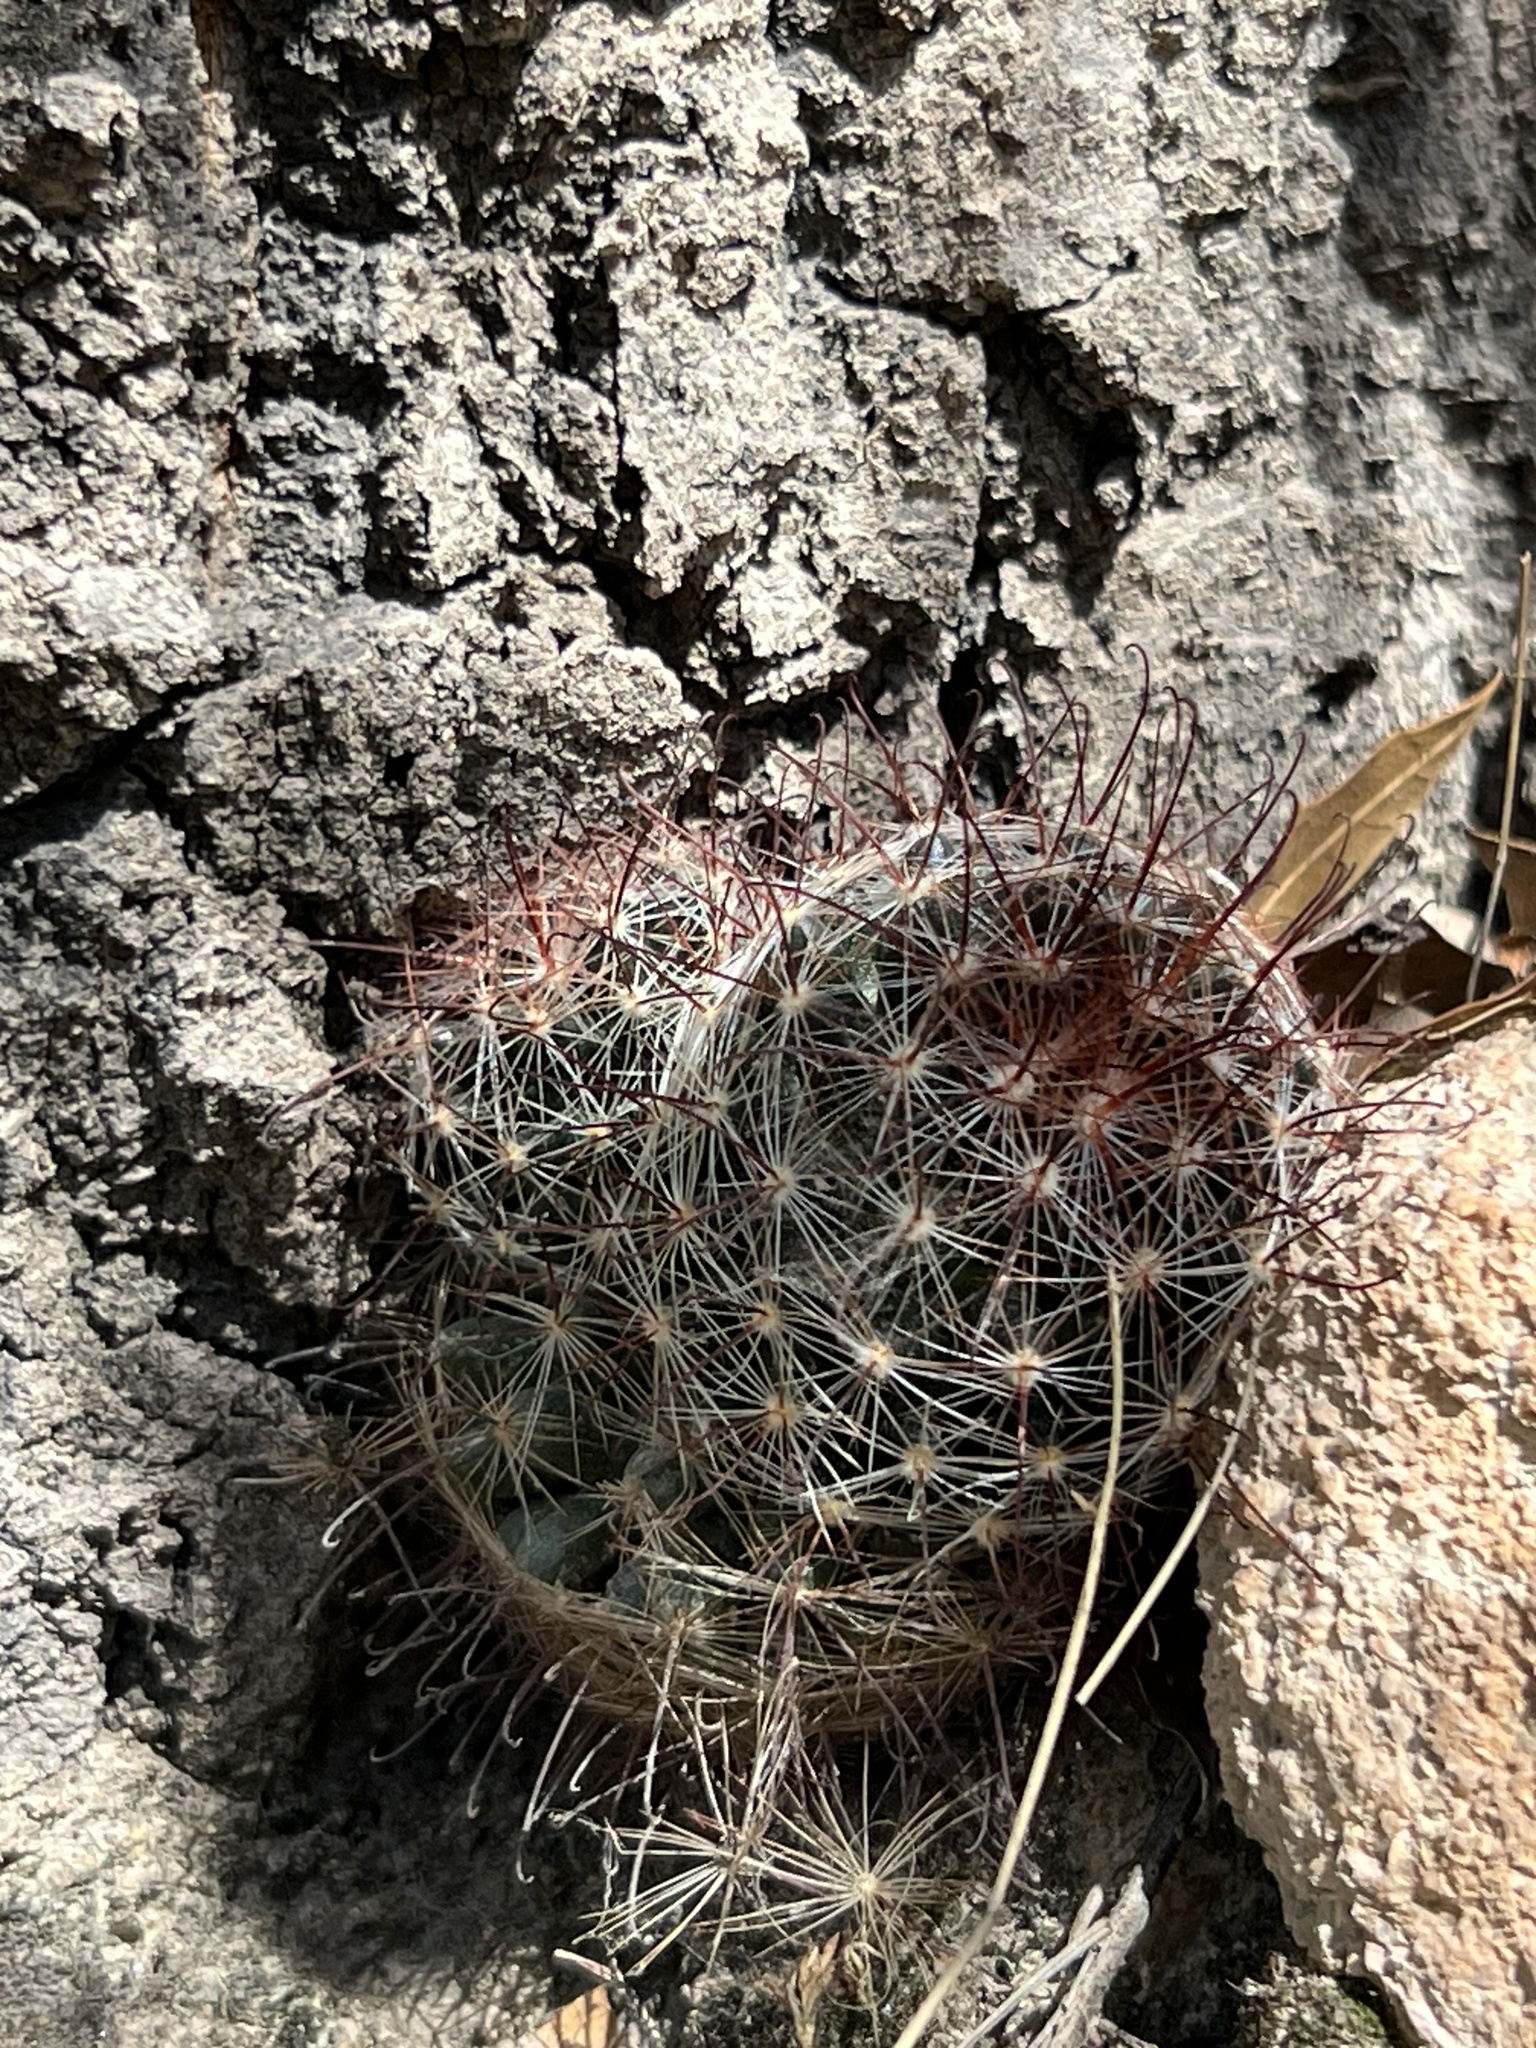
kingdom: Plantae
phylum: Tracheophyta
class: Magnoliopsida
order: Caryophyllales
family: Cactaceae
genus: Cochemiea
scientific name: Cochemiea wrightii
